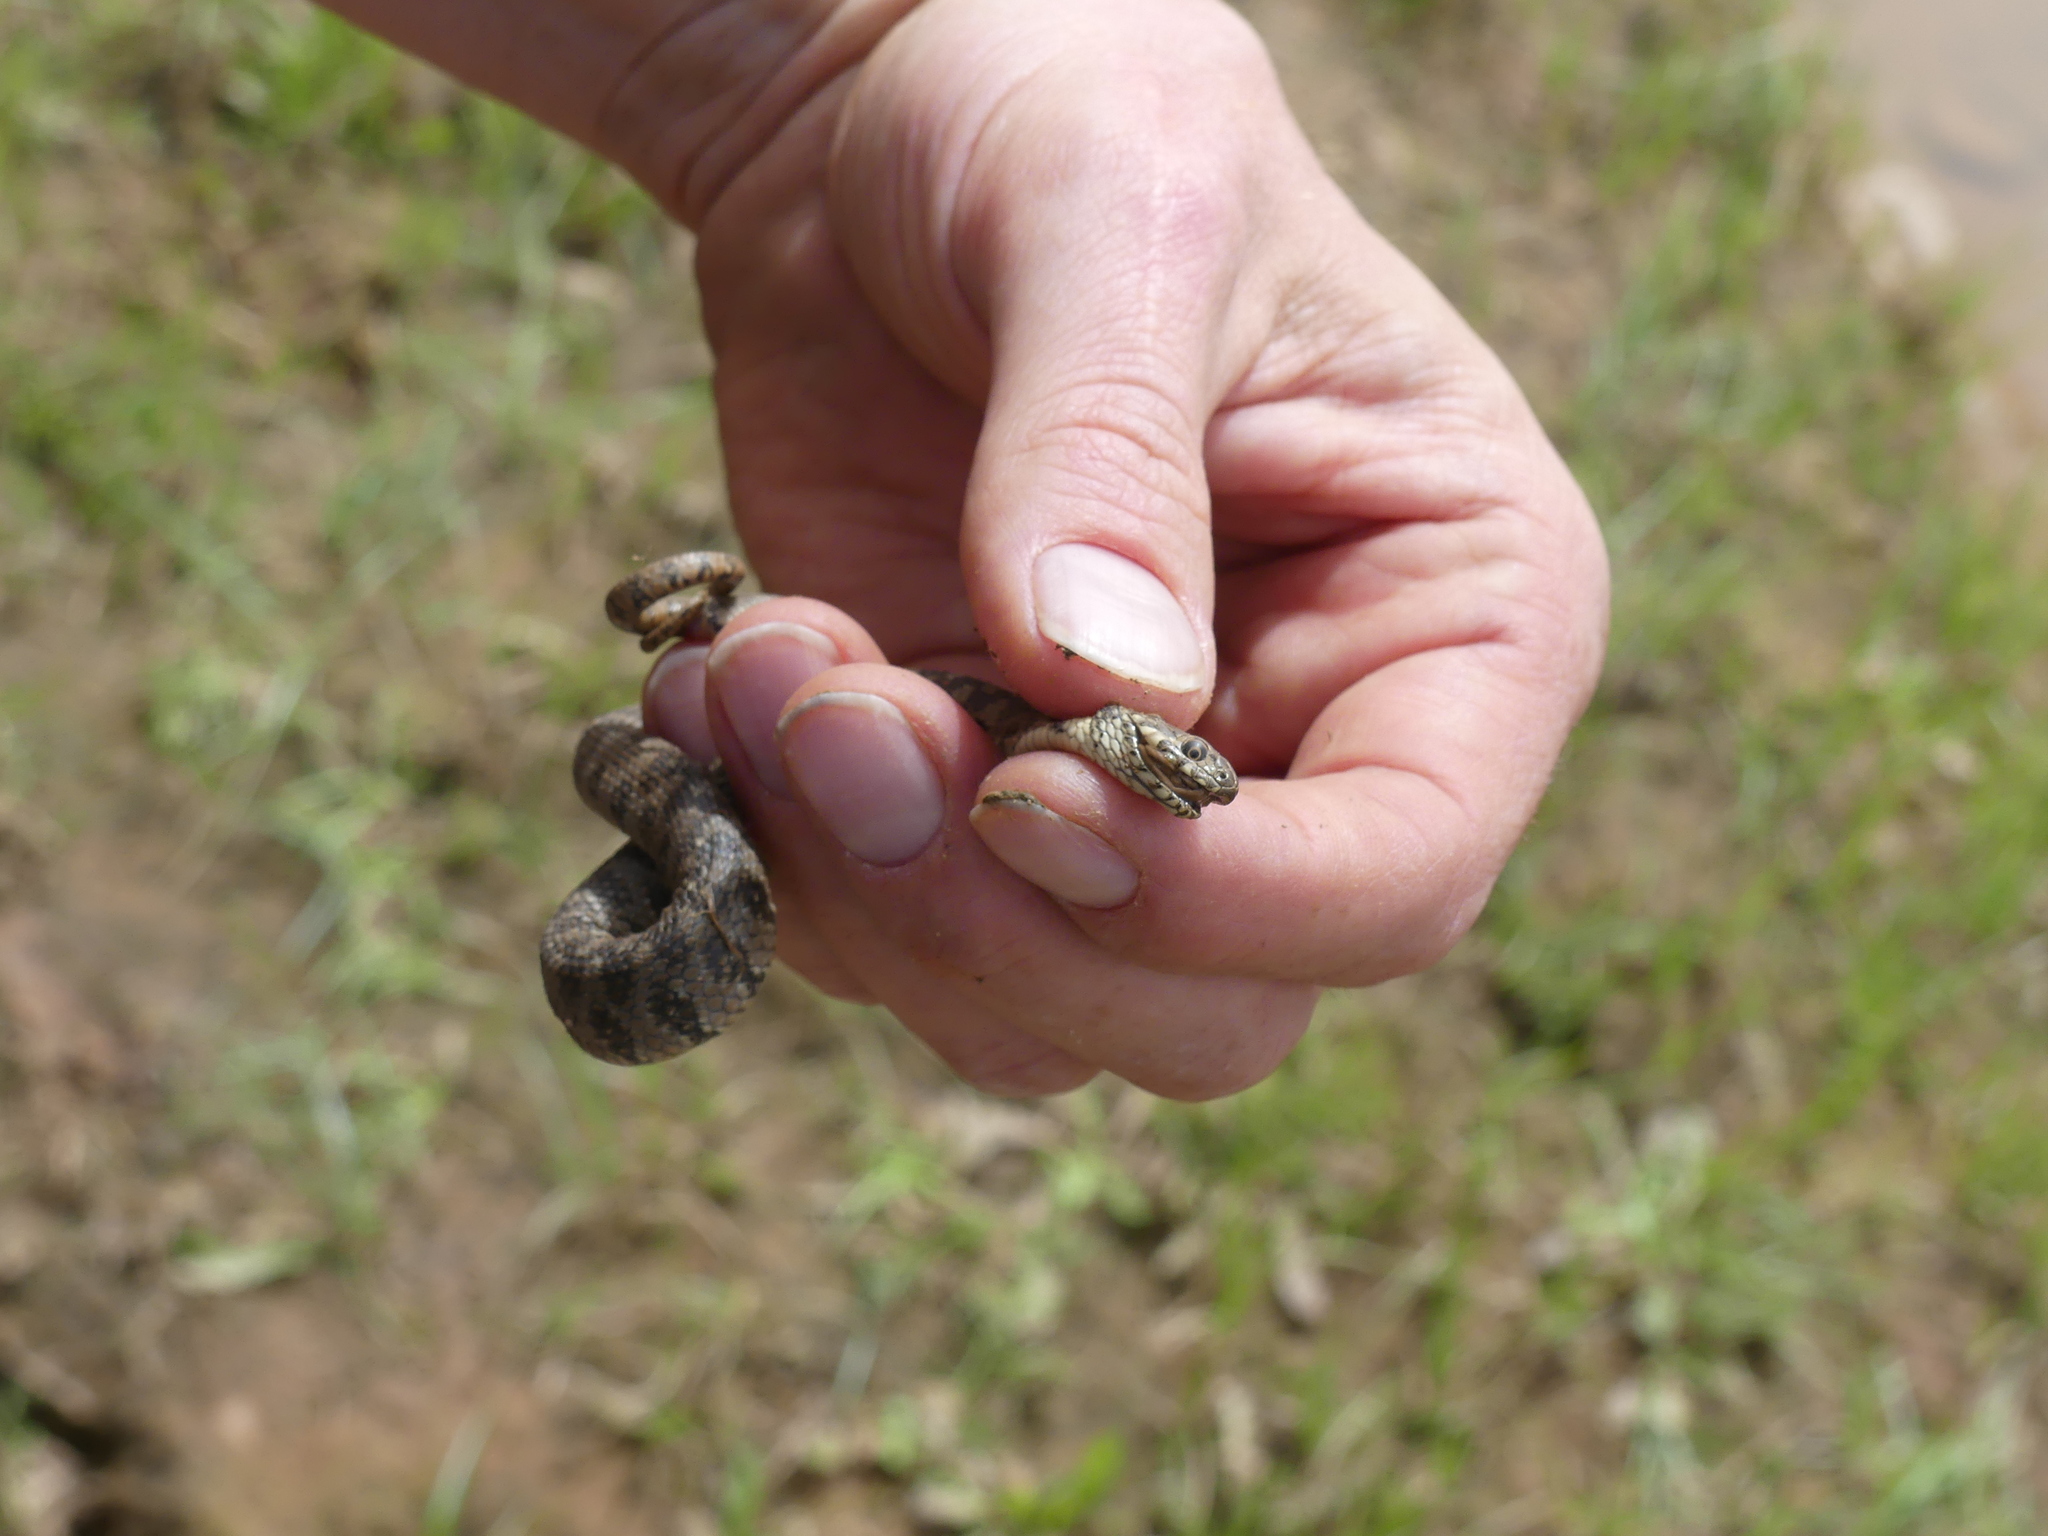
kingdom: Animalia
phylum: Chordata
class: Squamata
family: Colubridae
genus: Natrix
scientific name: Natrix maura
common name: Viperine water snake
